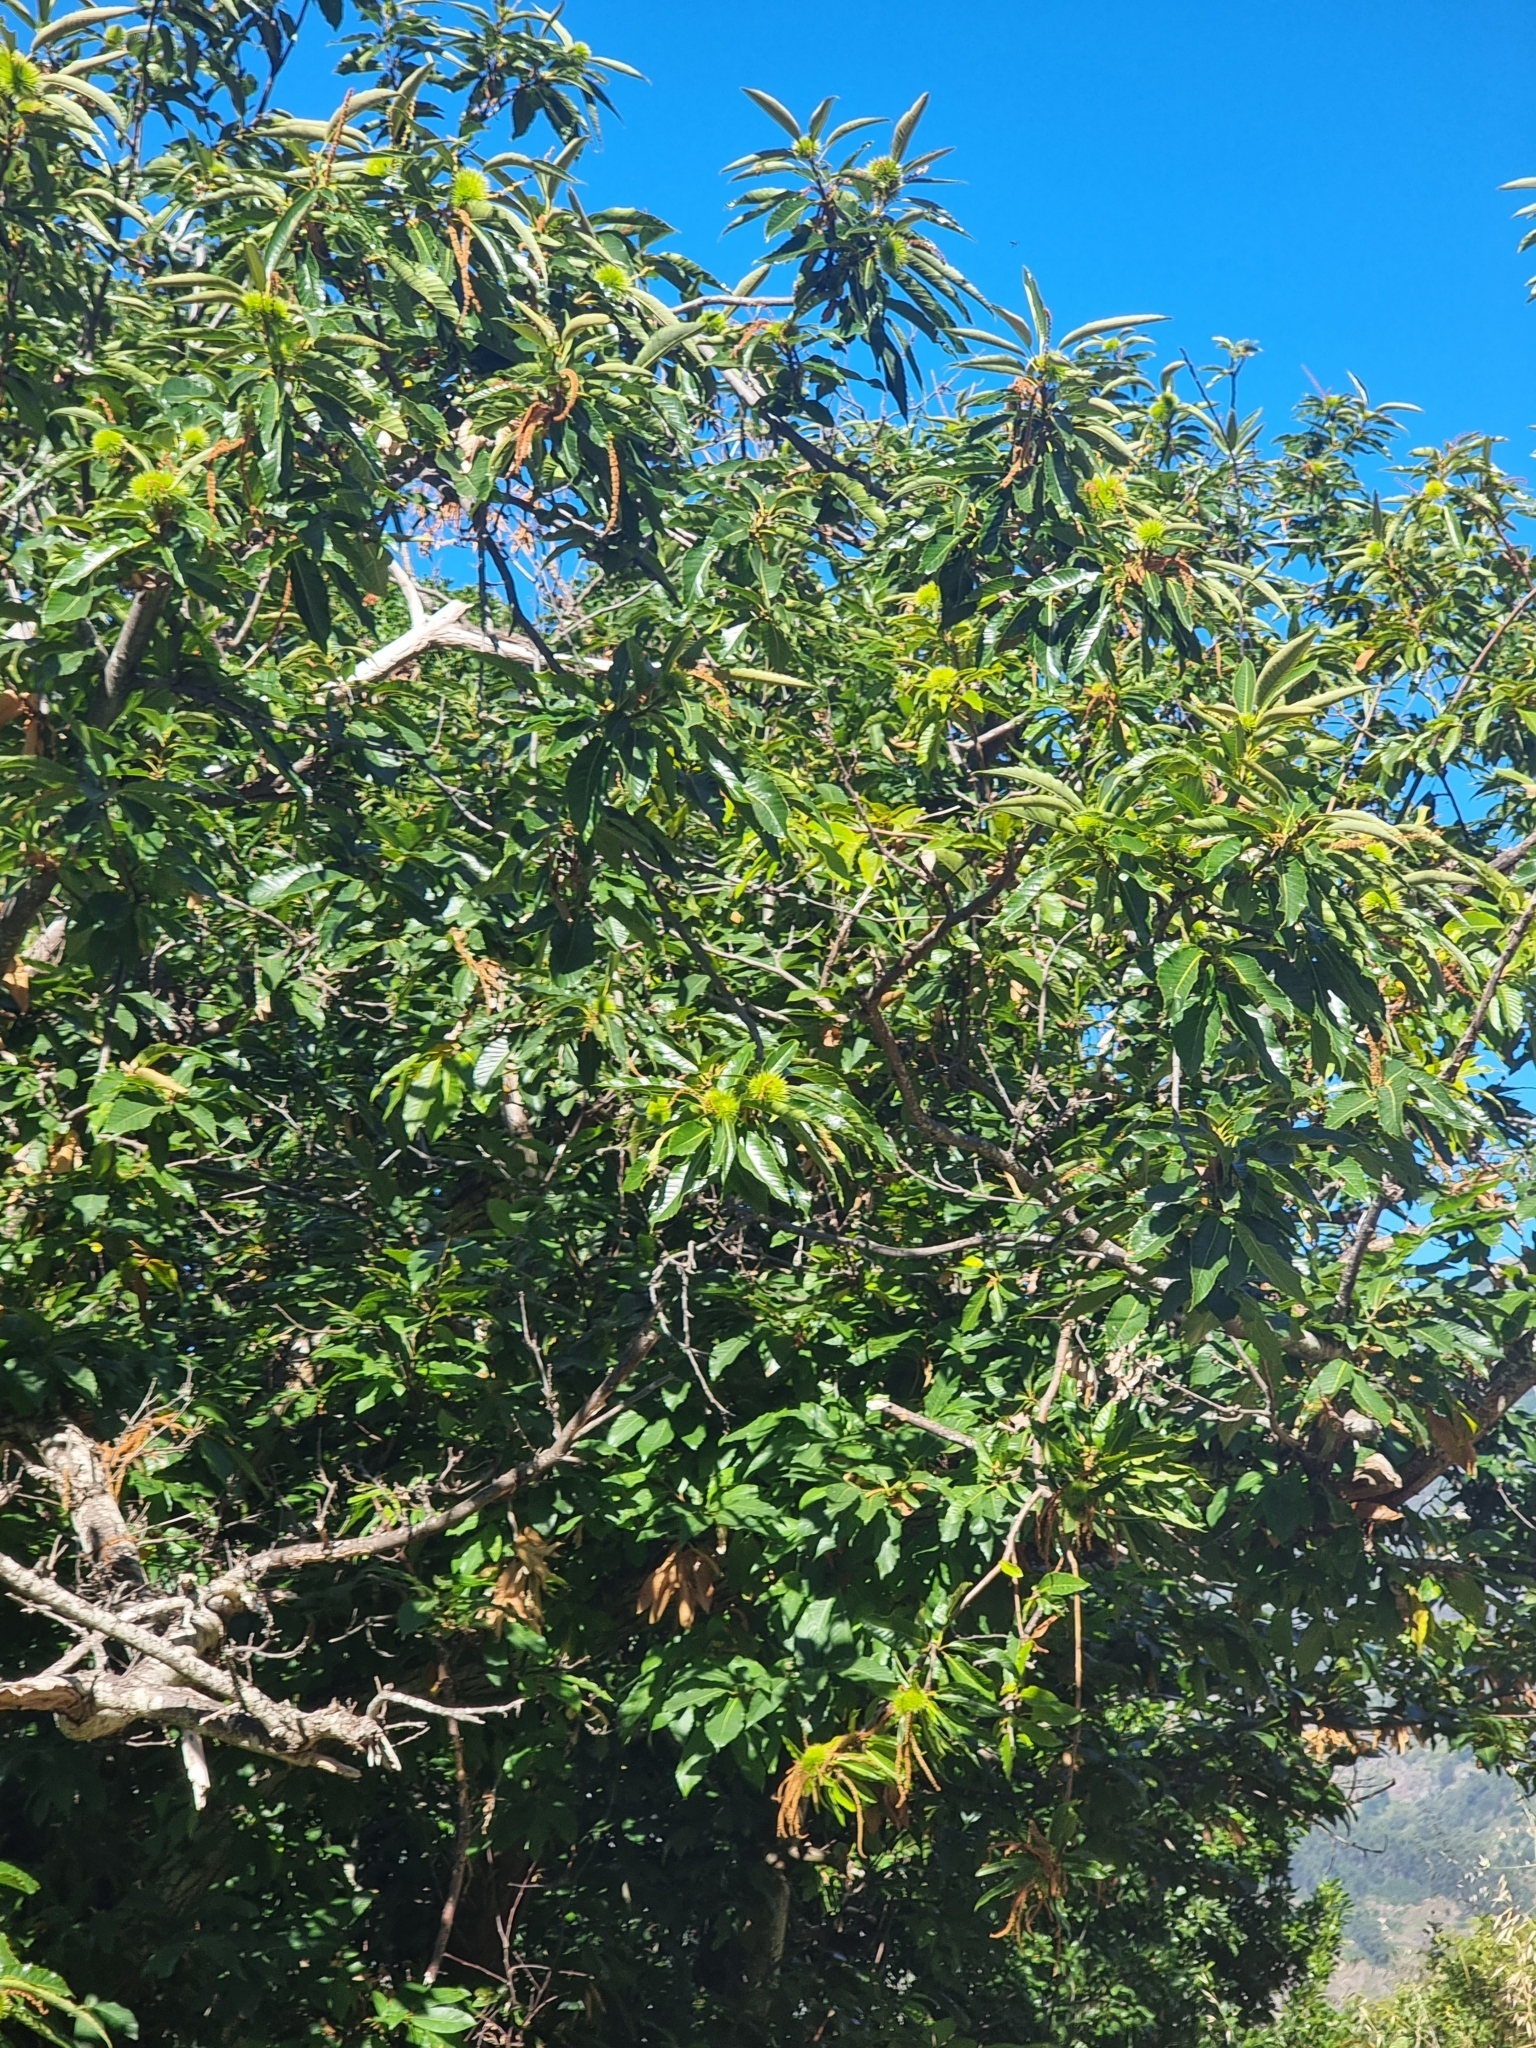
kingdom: Plantae
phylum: Tracheophyta
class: Magnoliopsida
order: Fagales
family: Fagaceae
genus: Castanea
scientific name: Castanea sativa
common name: Sweet chestnut
